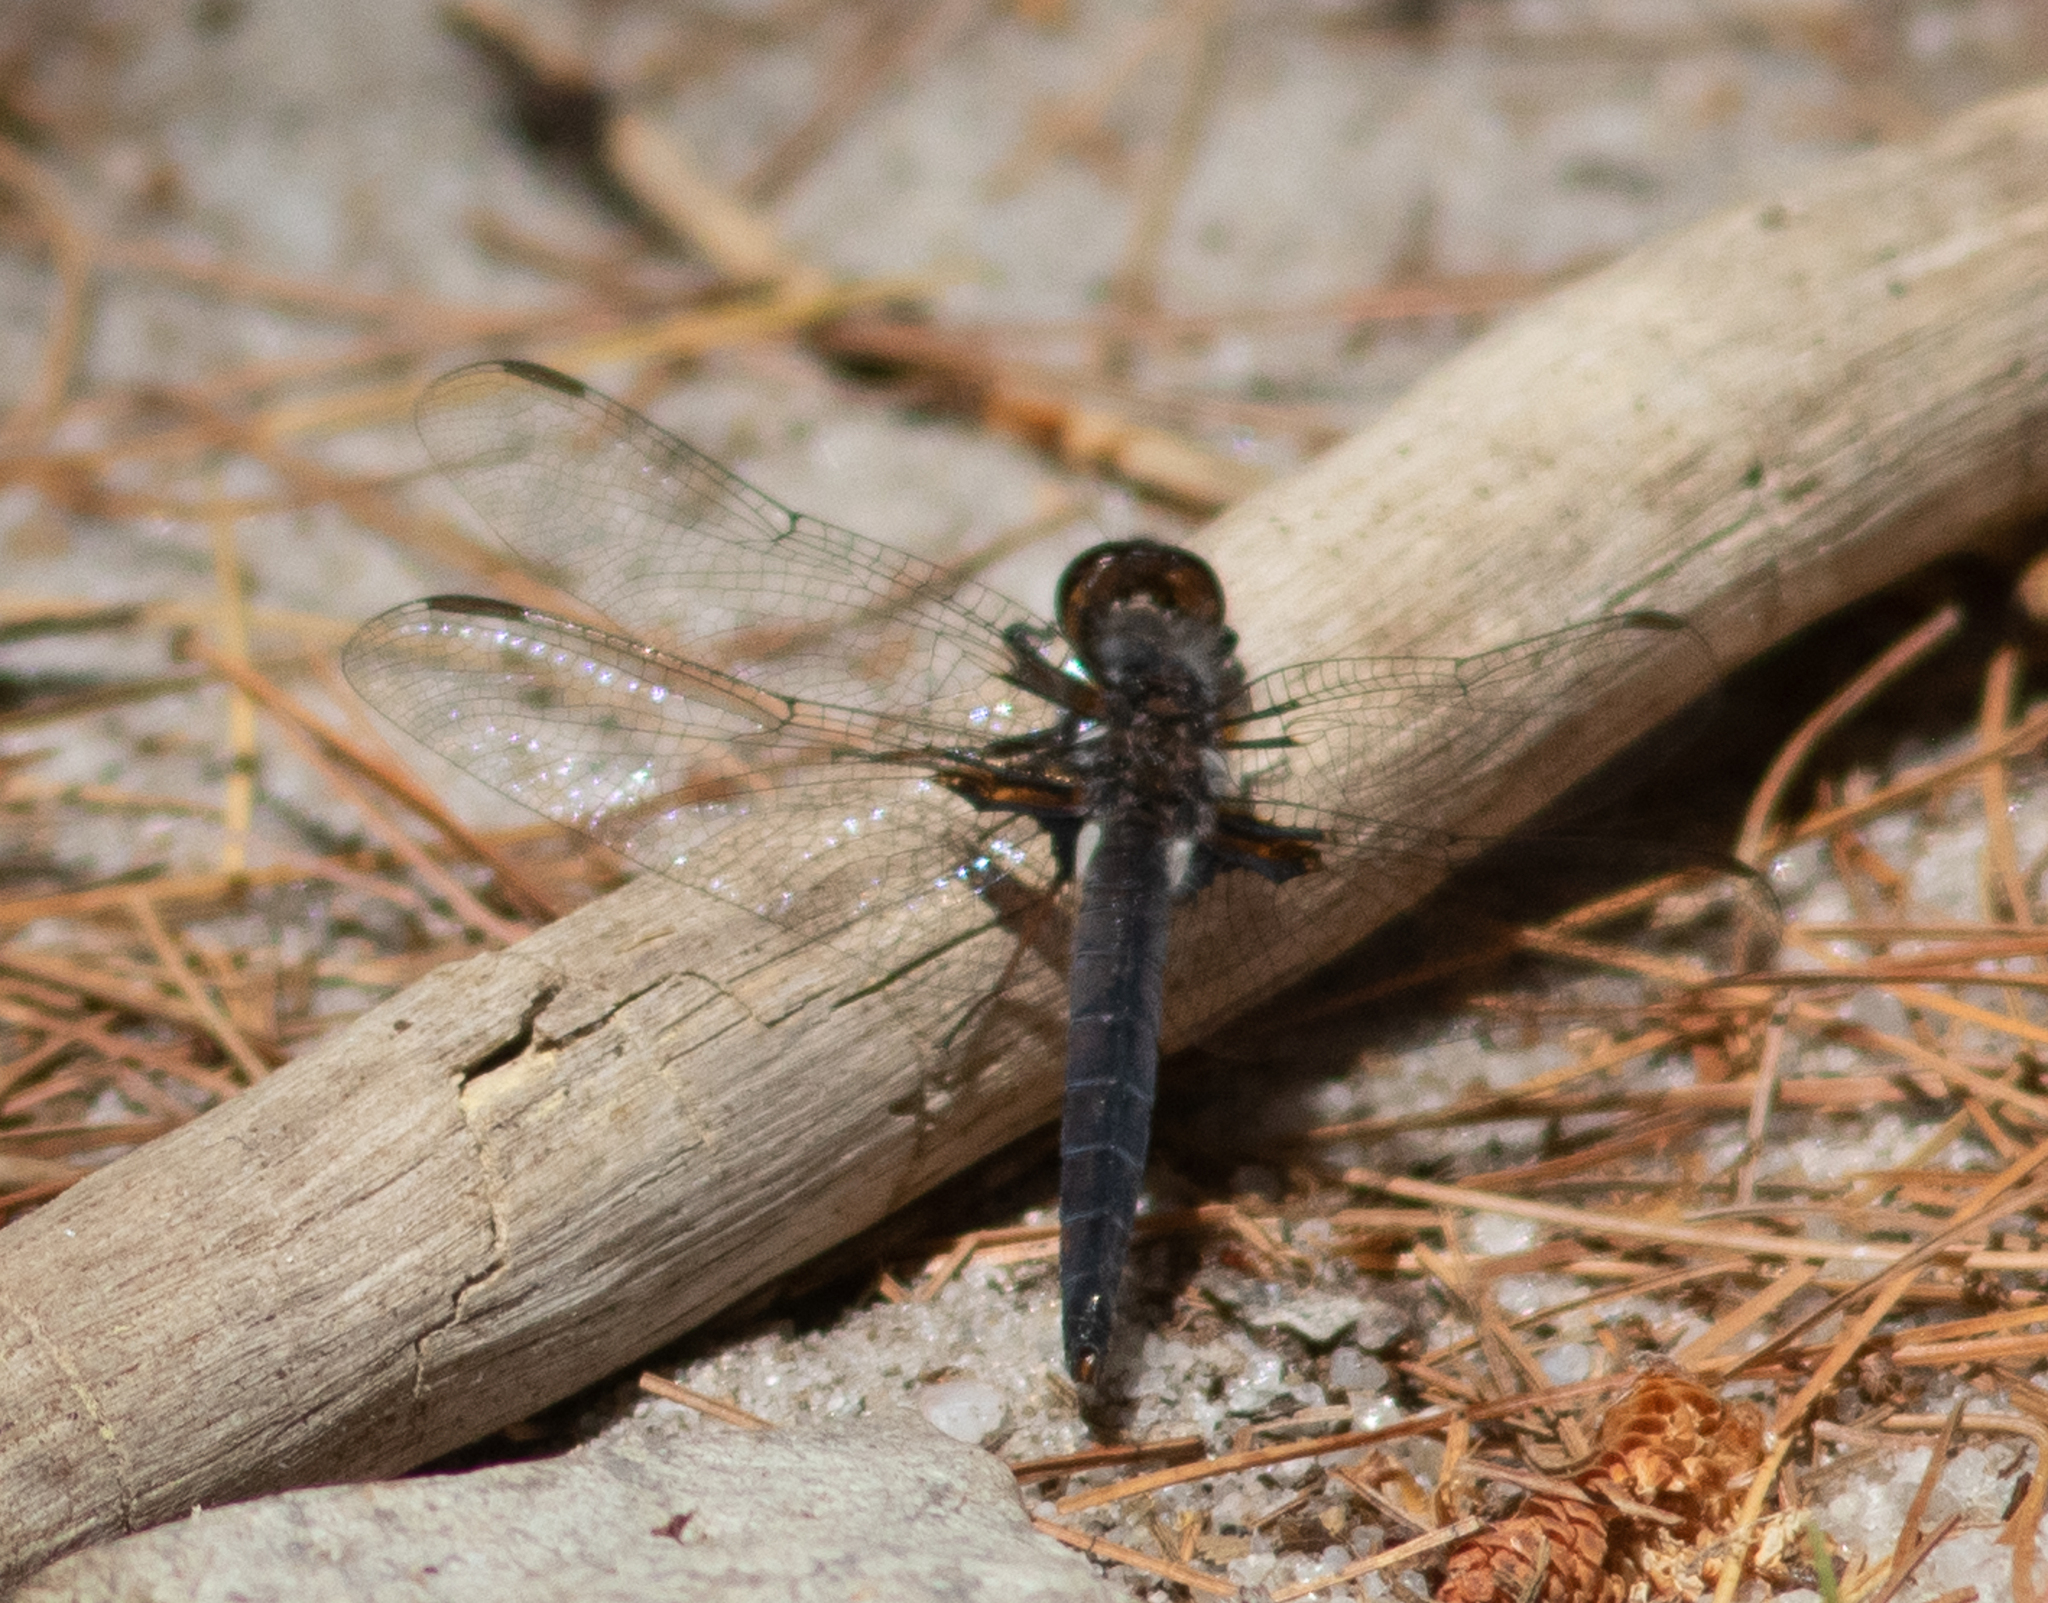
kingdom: Animalia
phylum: Arthropoda
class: Insecta
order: Odonata
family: Libellulidae
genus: Ladona
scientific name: Ladona deplanata
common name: Blue corporal
